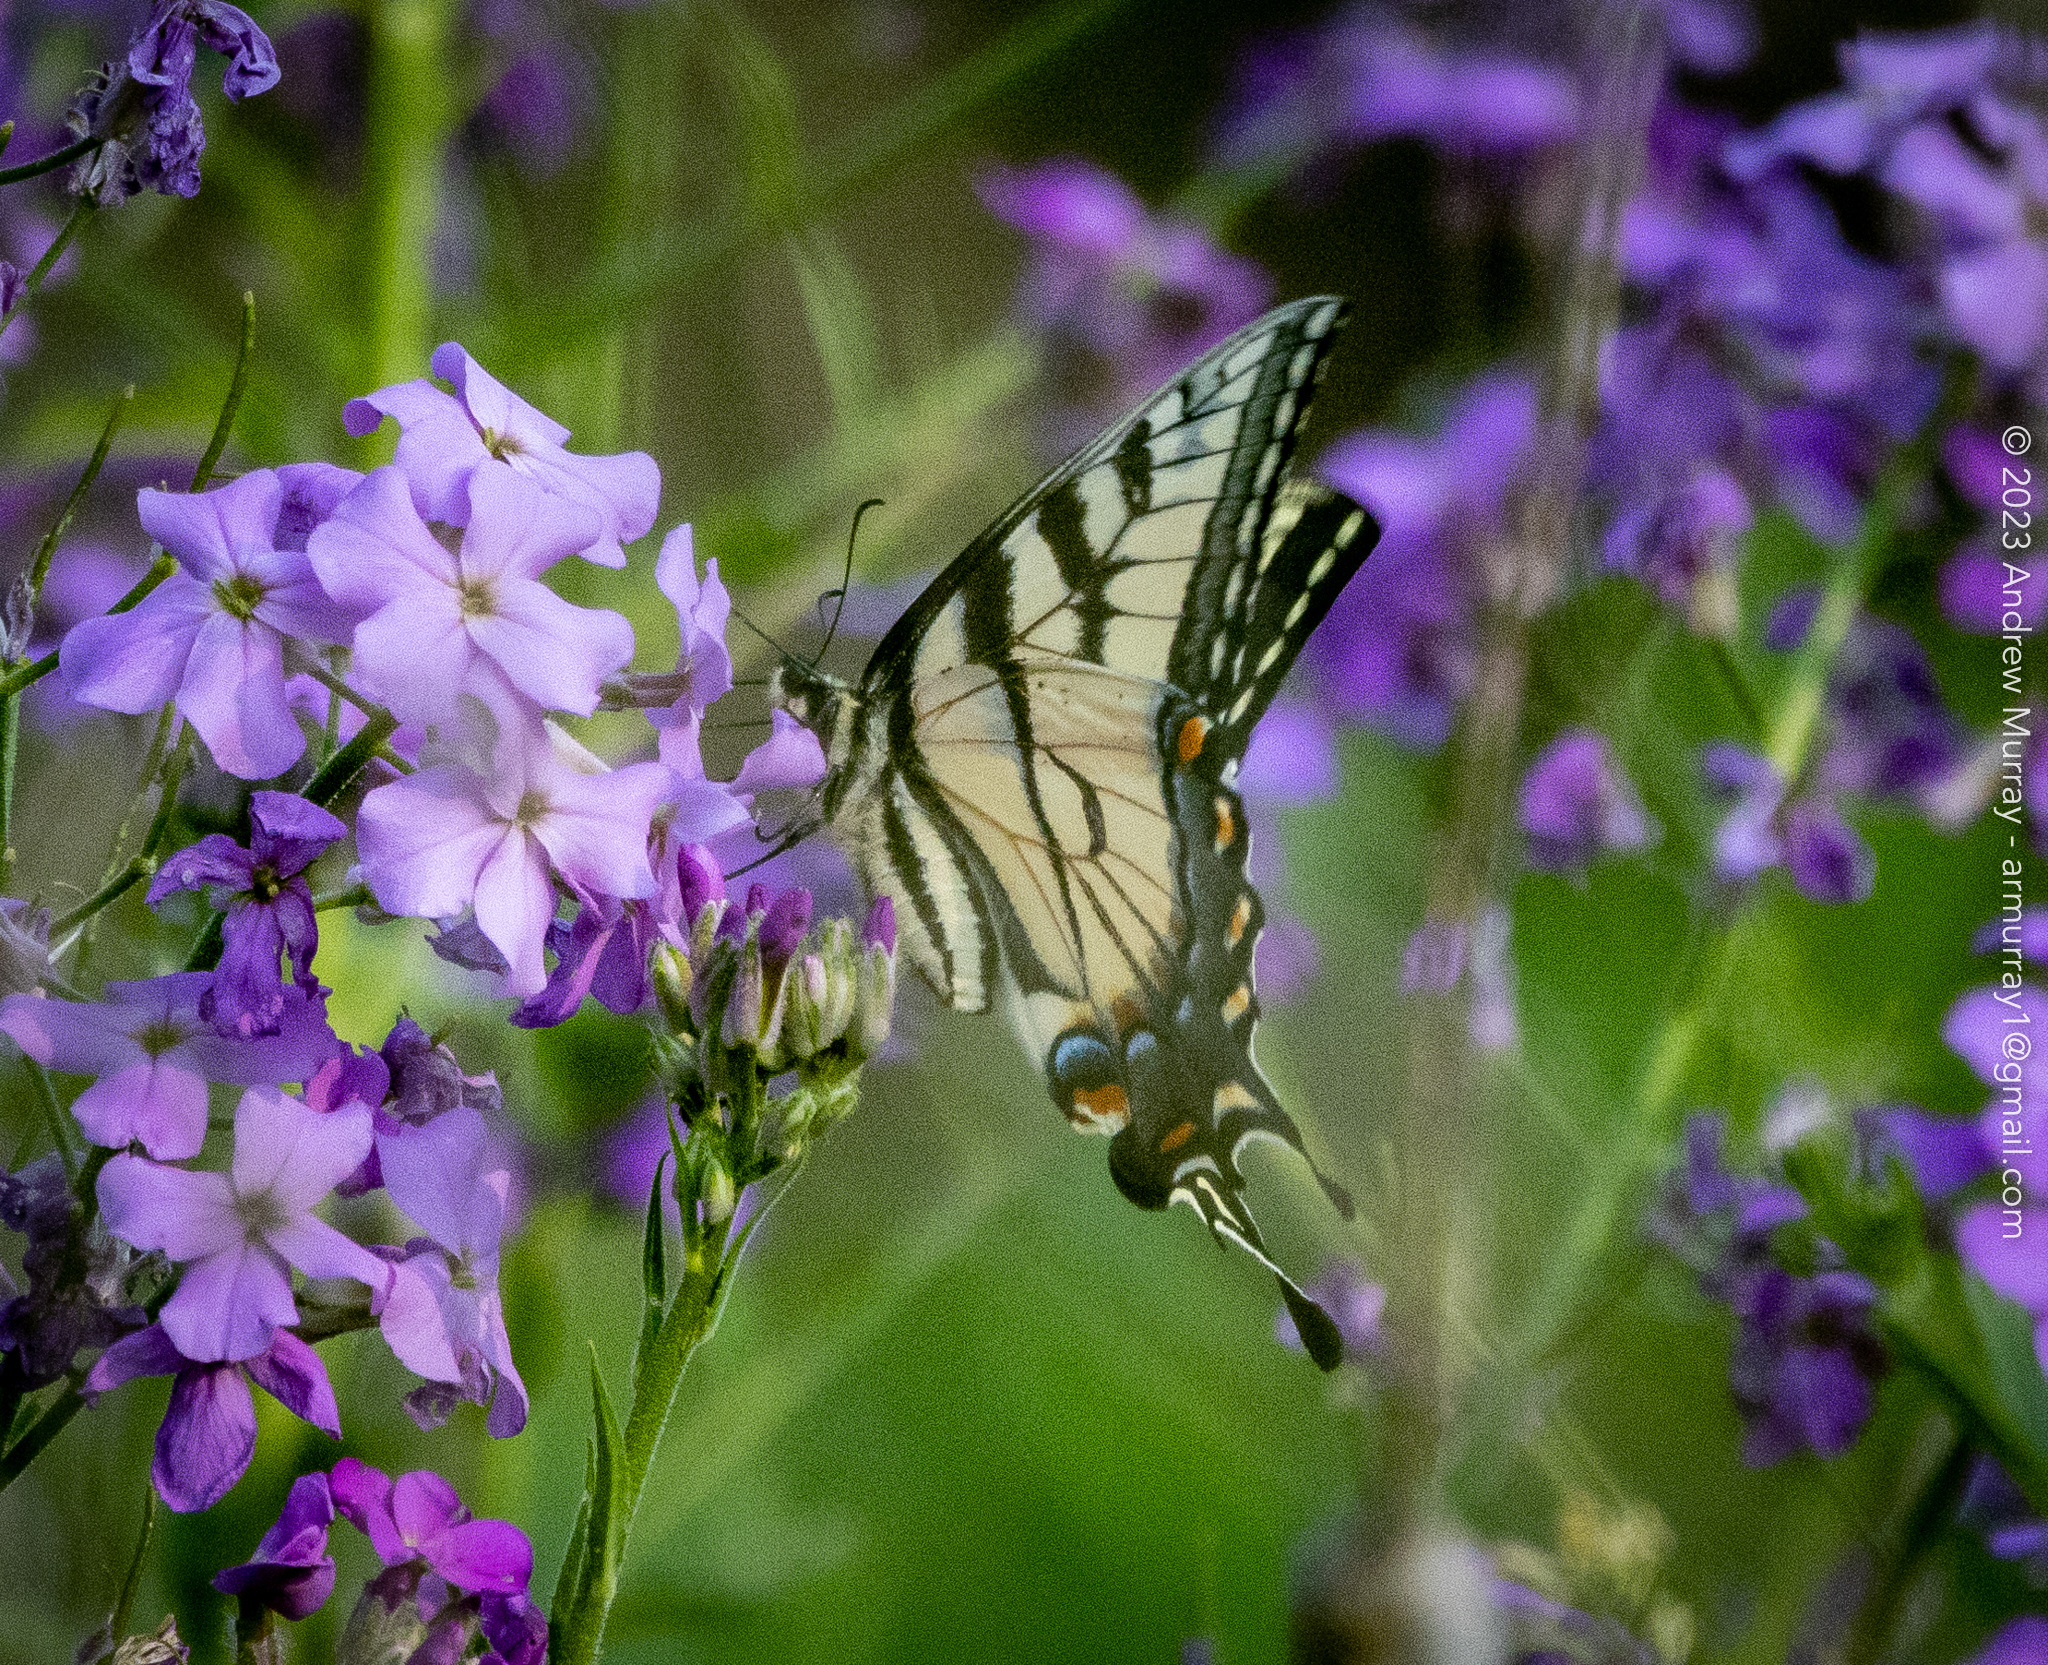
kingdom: Animalia
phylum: Arthropoda
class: Insecta
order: Lepidoptera
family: Papilionidae
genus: Papilio
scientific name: Papilio glaucus
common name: Tiger swallowtail
